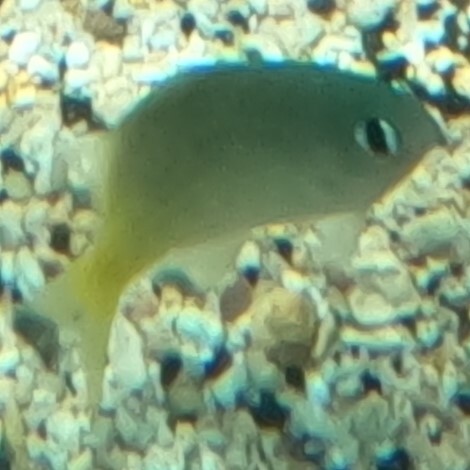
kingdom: Animalia
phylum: Chordata
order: Perciformes
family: Pomacentridae
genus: Plectroglyphidodon
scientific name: Plectroglyphidodon imparipennis
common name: Brighteye damsel
